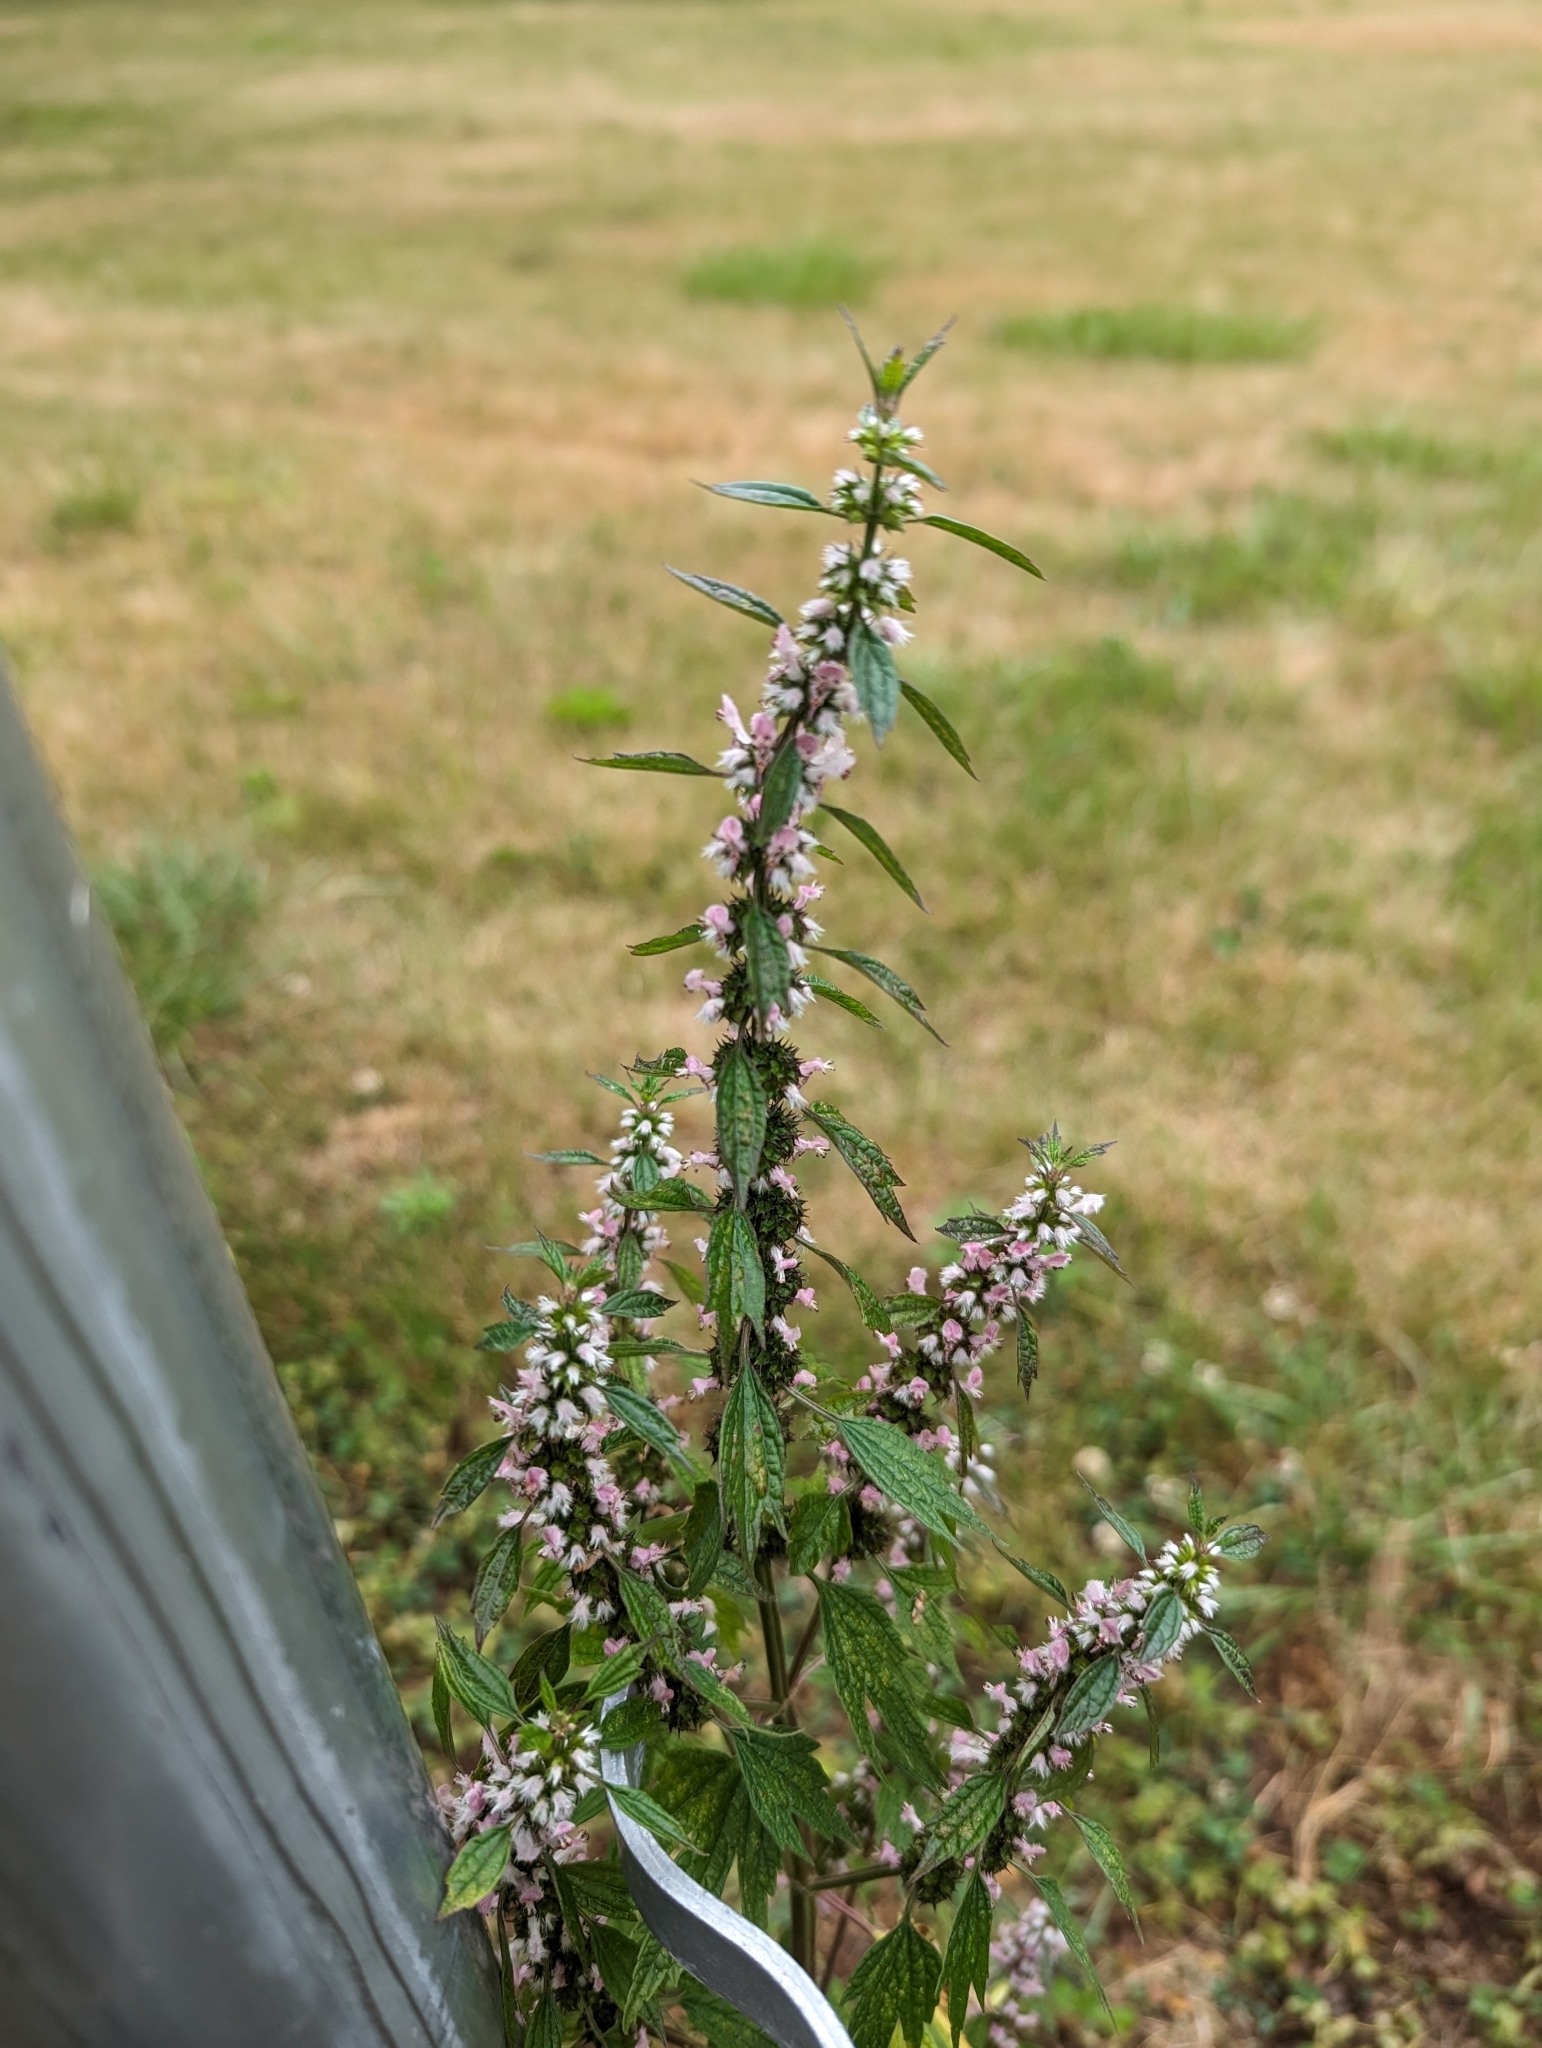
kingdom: Plantae
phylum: Tracheophyta
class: Magnoliopsida
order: Lamiales
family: Lamiaceae
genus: Leonurus
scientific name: Leonurus cardiaca
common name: Motherwort
